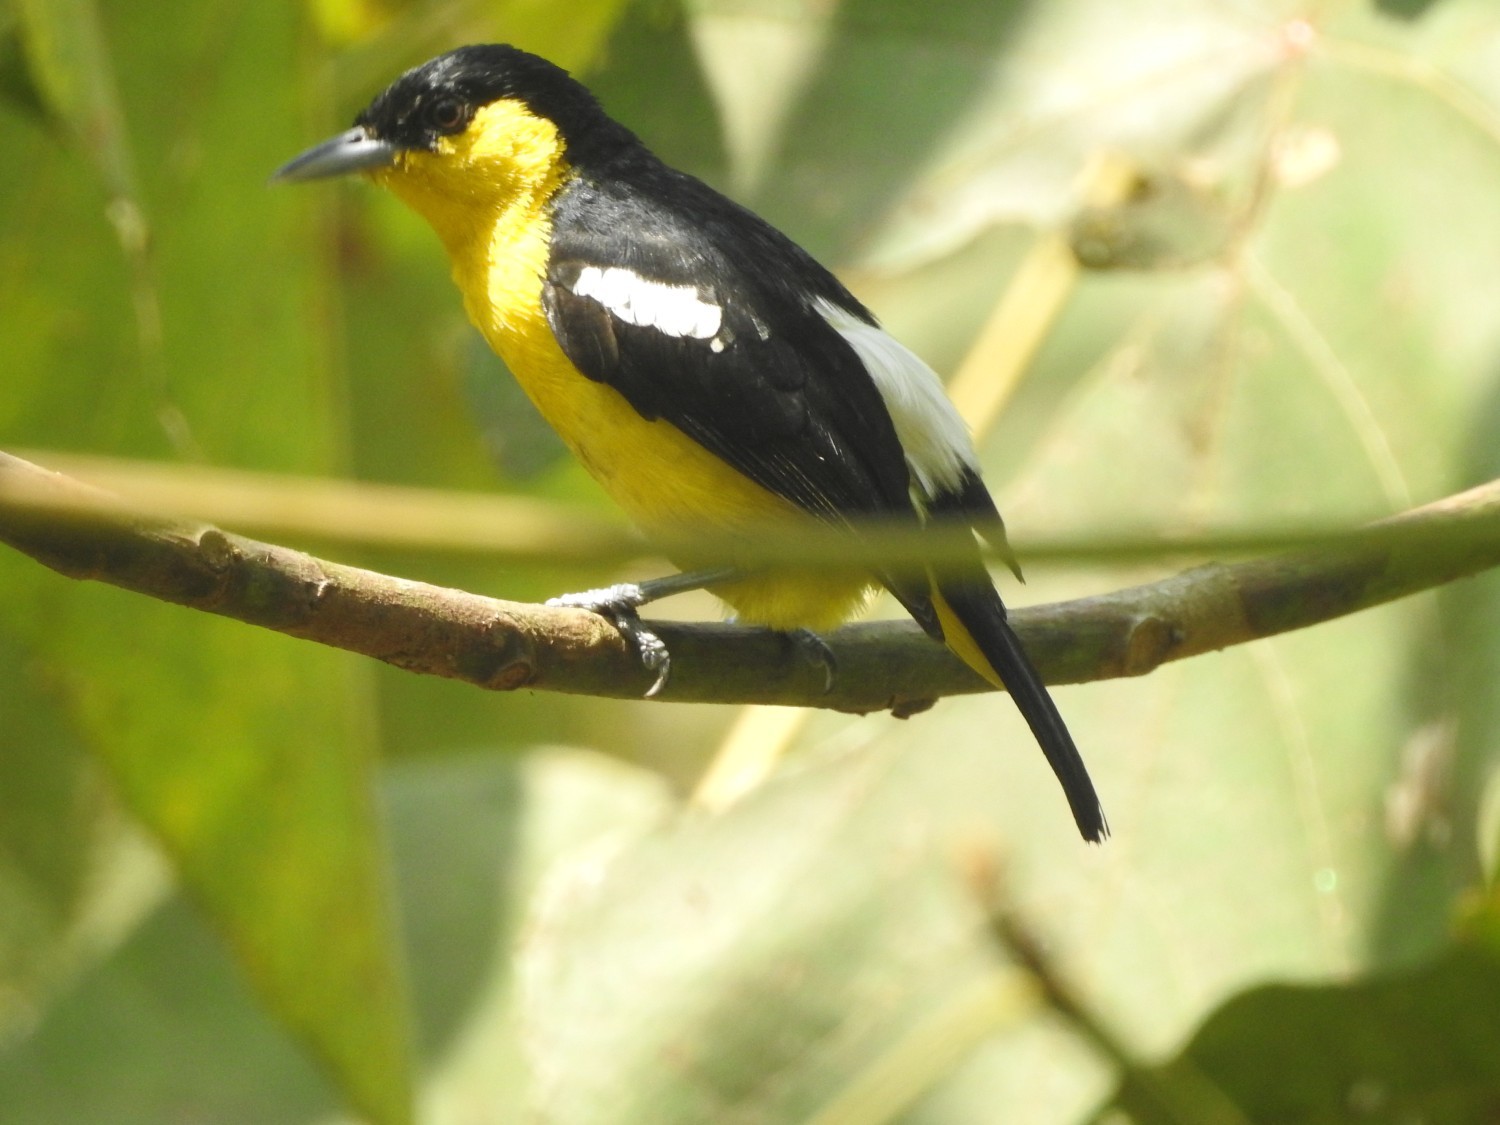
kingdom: Animalia
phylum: Chordata
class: Aves
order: Passeriformes
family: Aegithinidae
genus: Aegithina
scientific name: Aegithina tiphia
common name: Common iora
